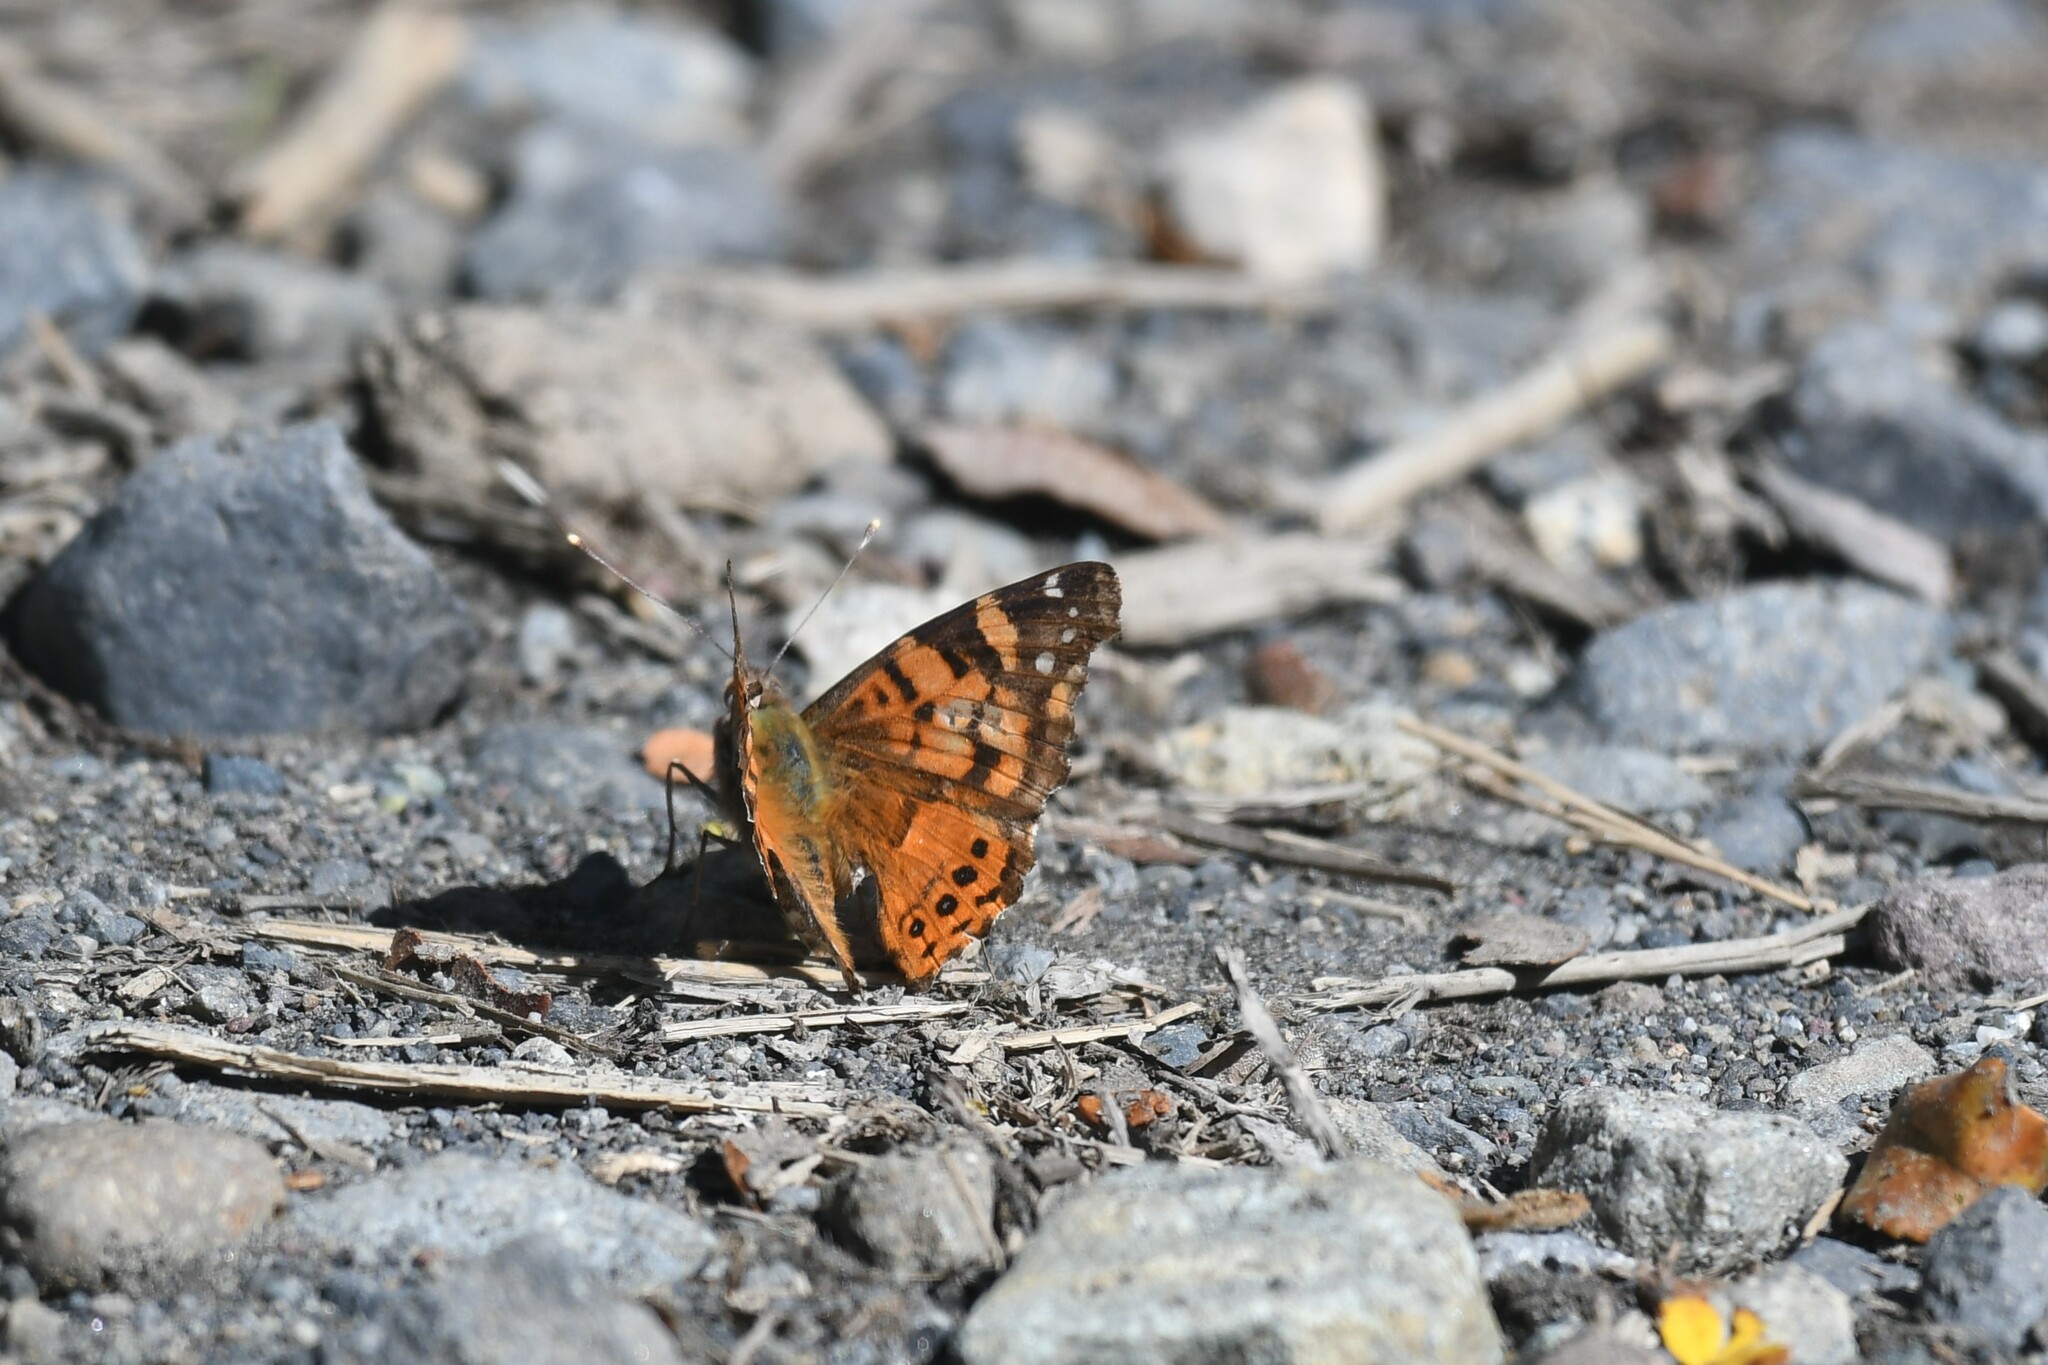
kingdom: Animalia
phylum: Arthropoda
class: Insecta
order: Lepidoptera
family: Nymphalidae
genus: Vanessa
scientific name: Vanessa carye
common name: Subtropical lady
